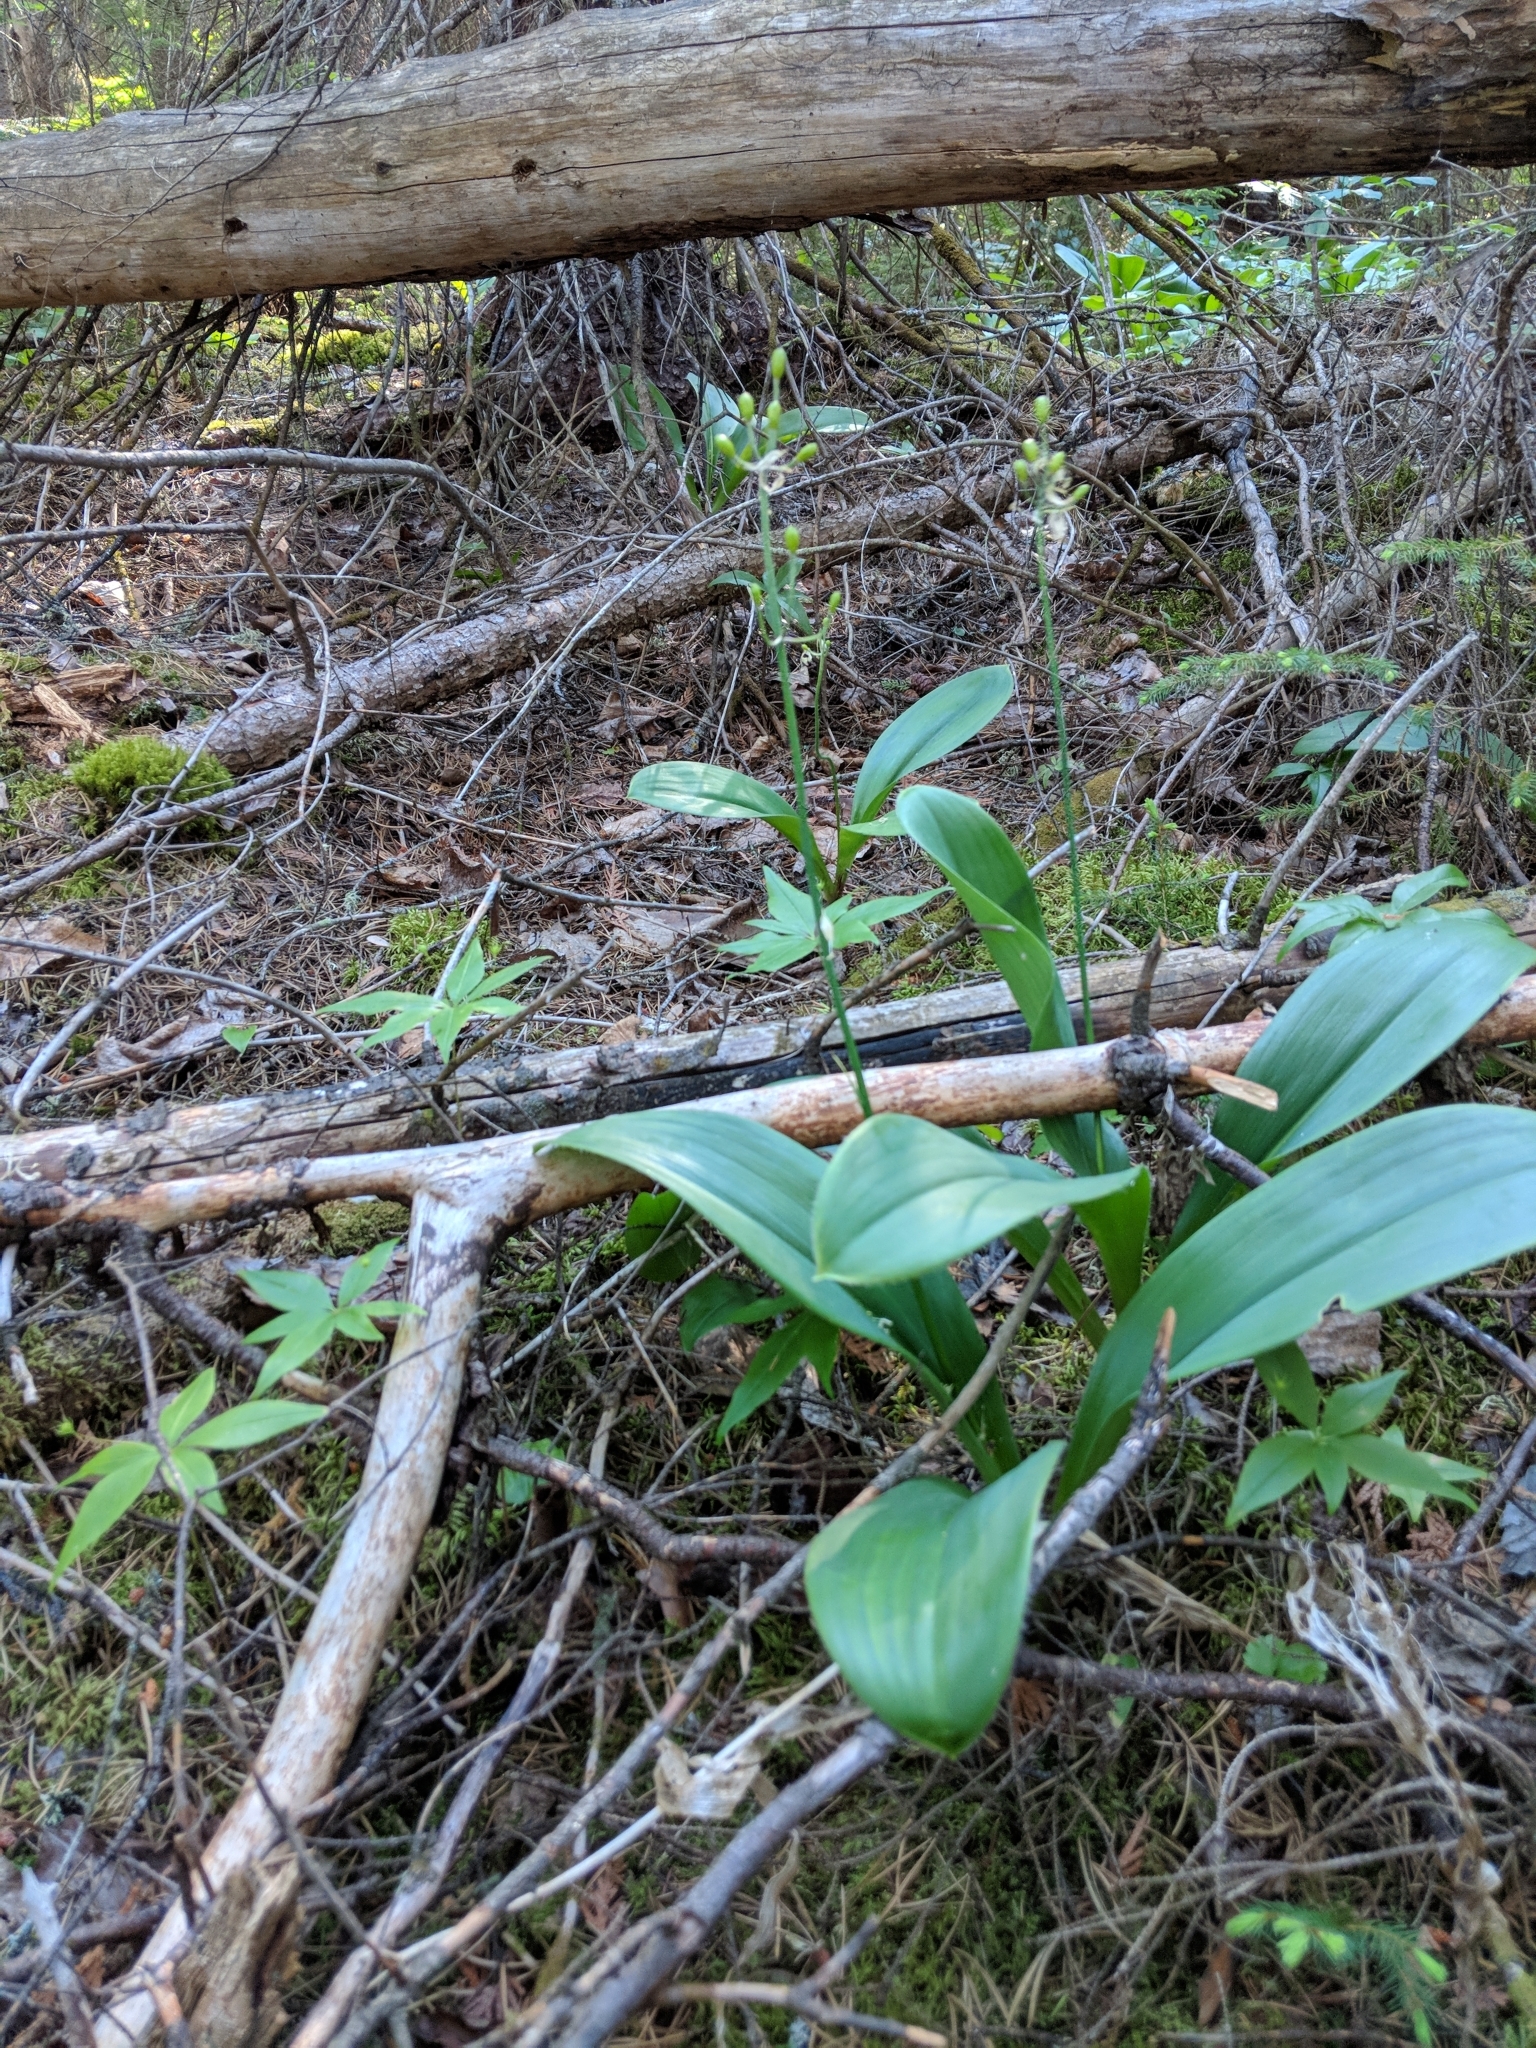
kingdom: Plantae
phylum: Tracheophyta
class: Liliopsida
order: Liliales
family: Liliaceae
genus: Clintonia
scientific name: Clintonia borealis
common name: Yellow clintonia
